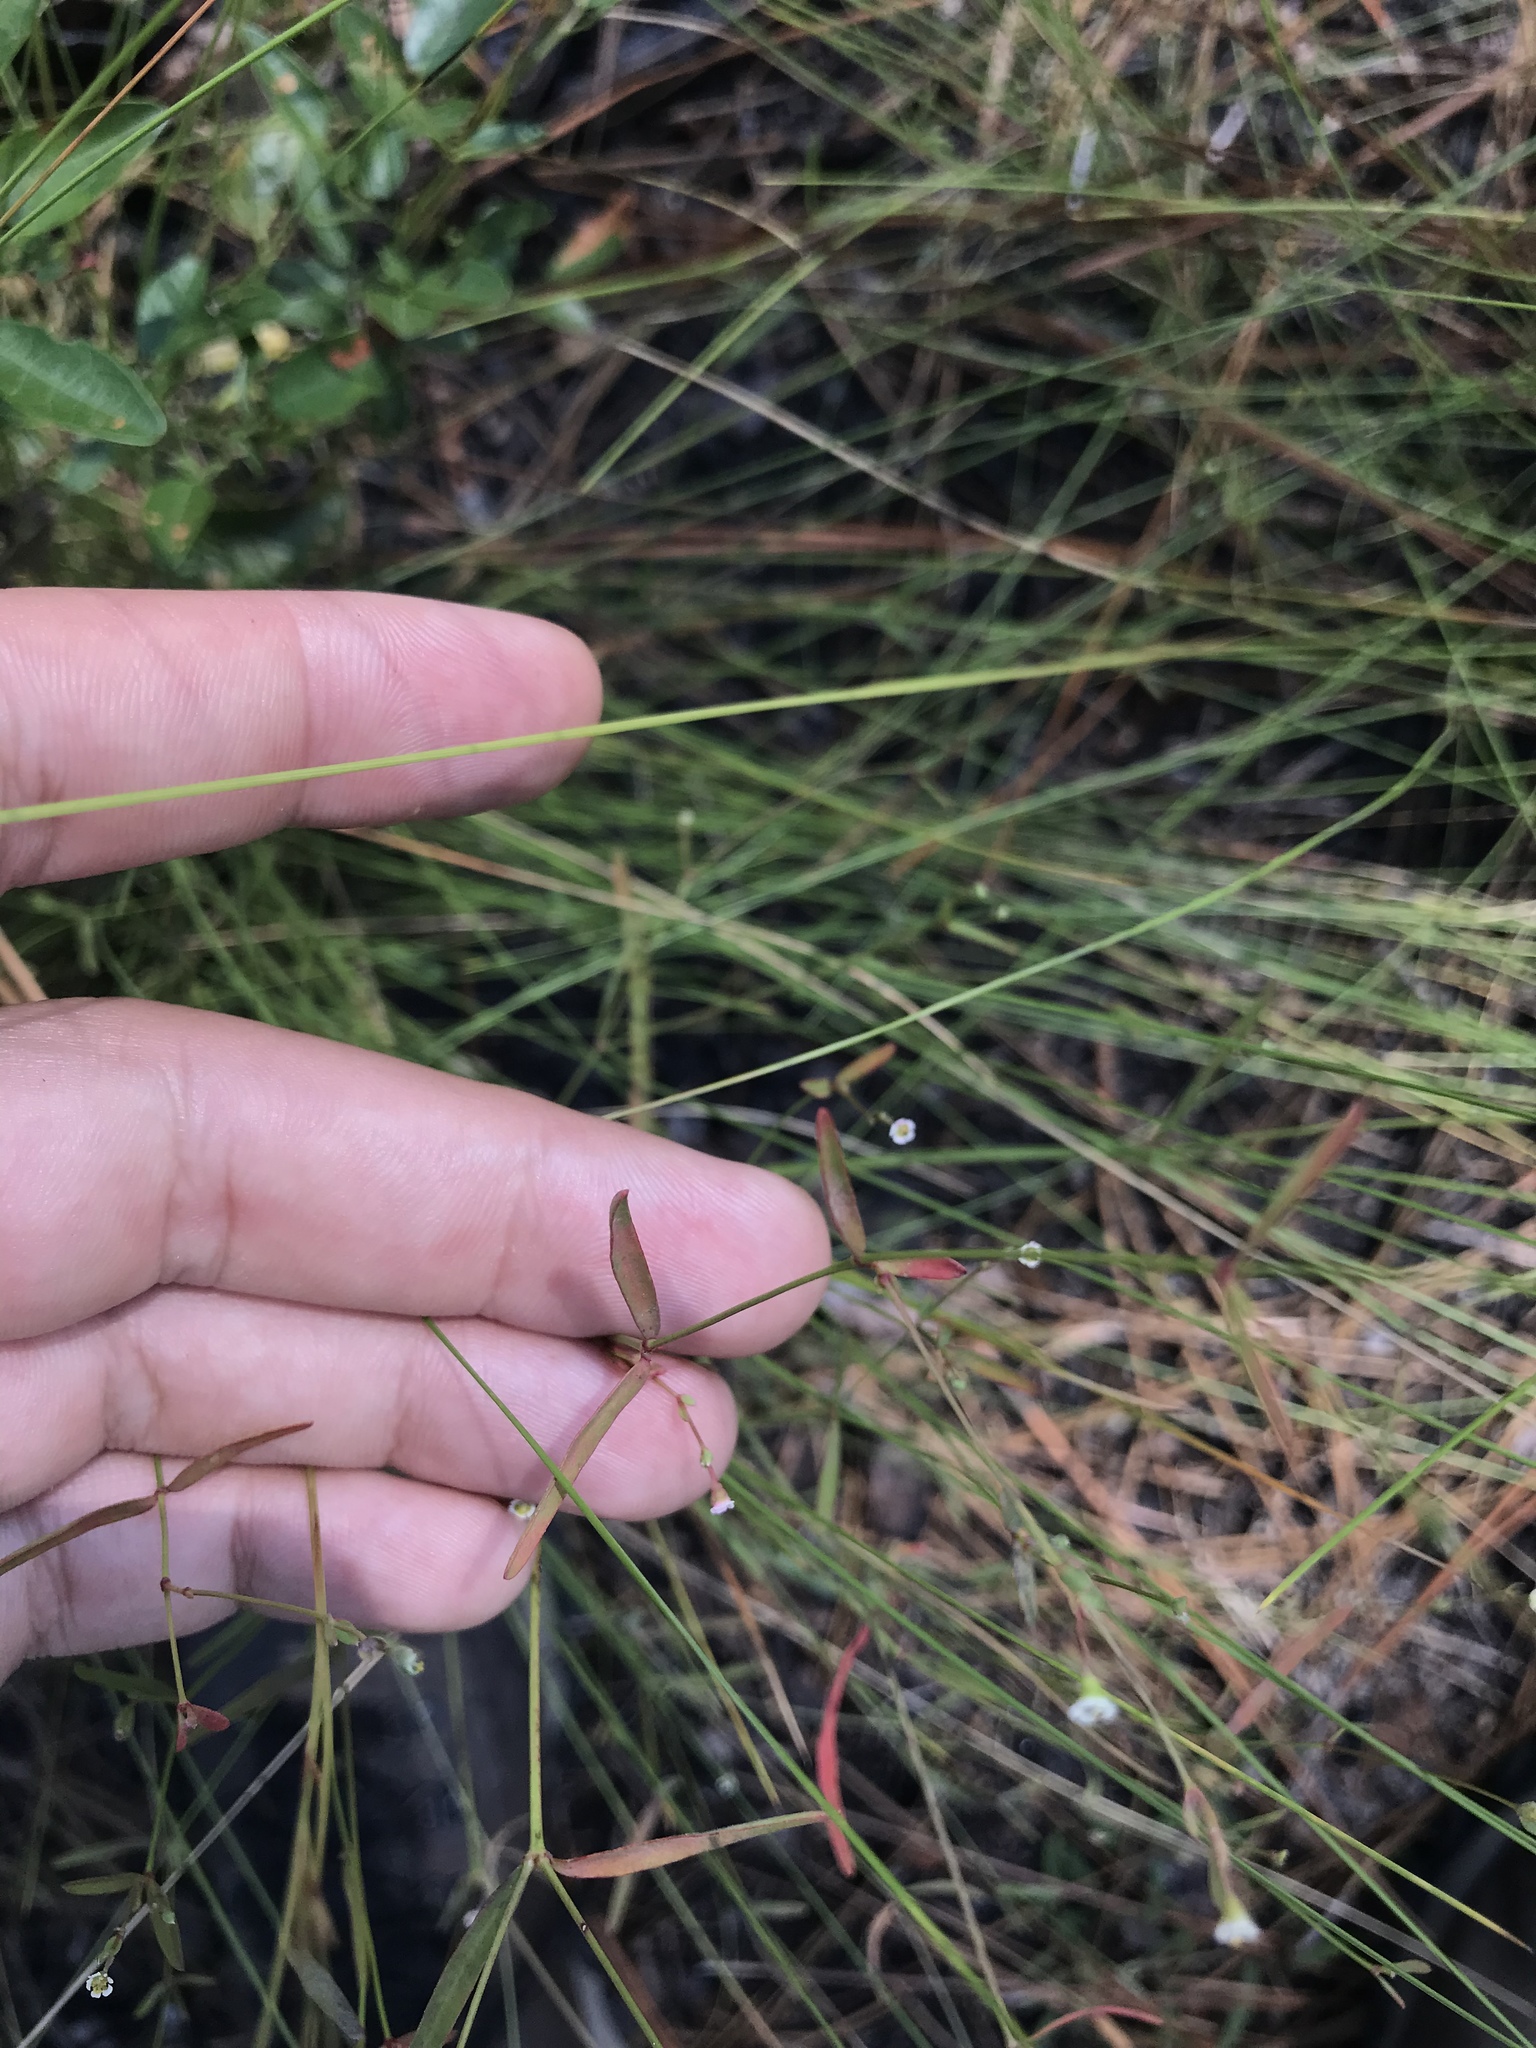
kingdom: Plantae
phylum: Tracheophyta
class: Magnoliopsida
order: Malpighiales
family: Euphorbiaceae
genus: Euphorbia
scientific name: Euphorbia curtisii
